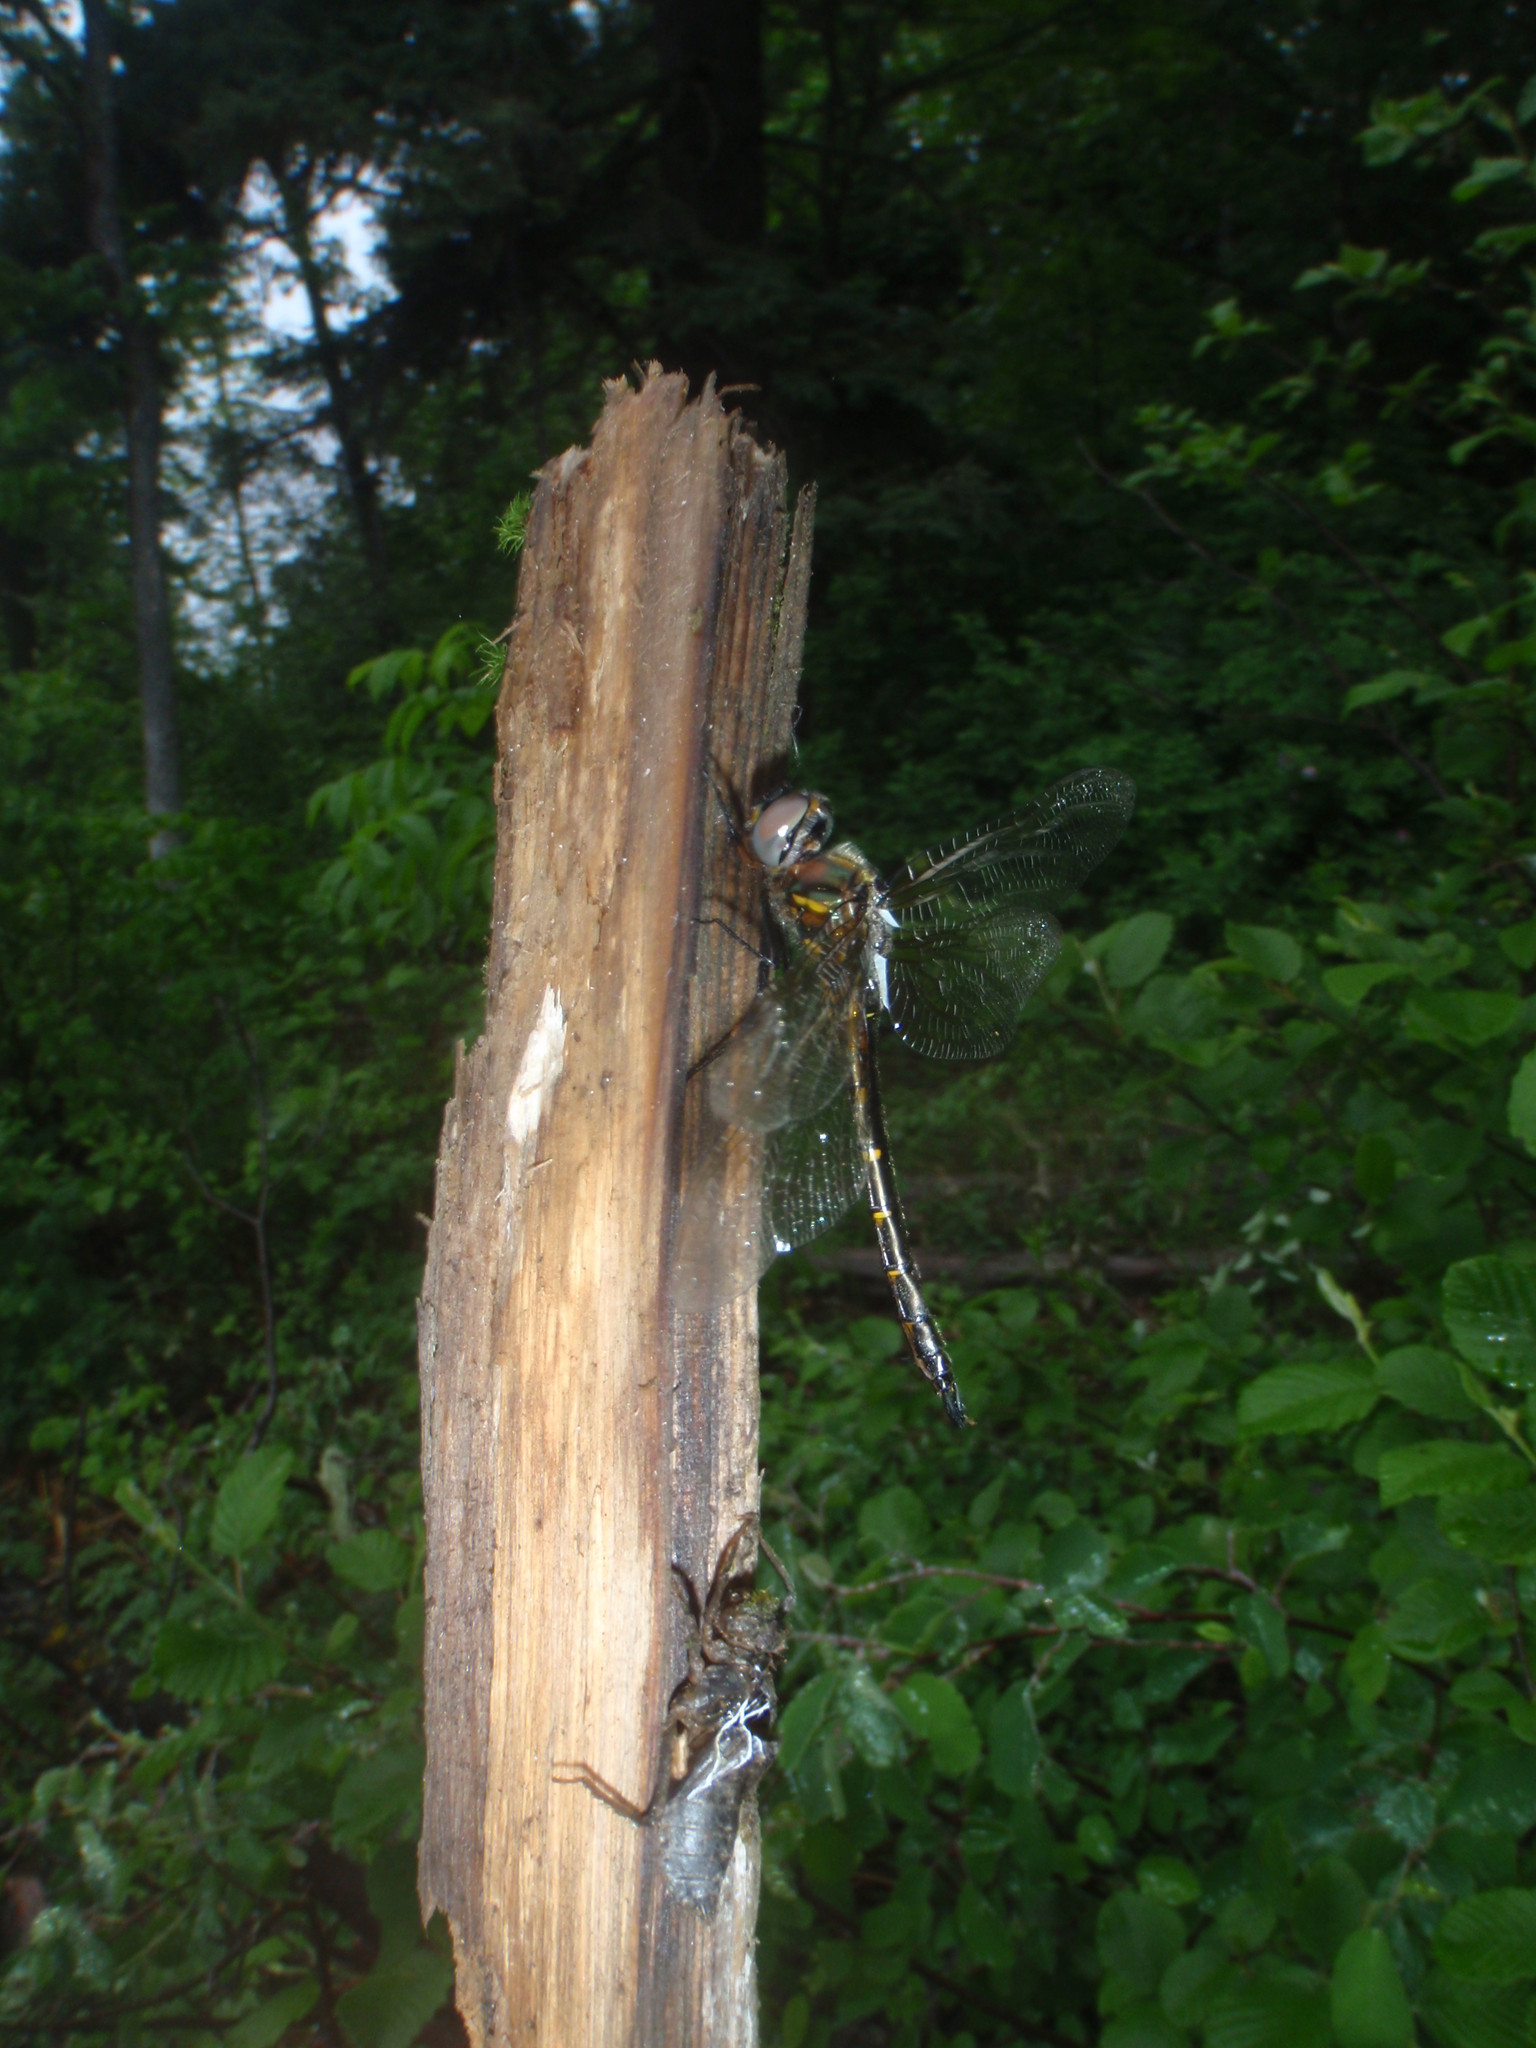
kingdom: Animalia
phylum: Arthropoda
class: Insecta
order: Odonata
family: Corduliidae
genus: Somatochlora
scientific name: Somatochlora williamsoni
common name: Williamson's emerald
